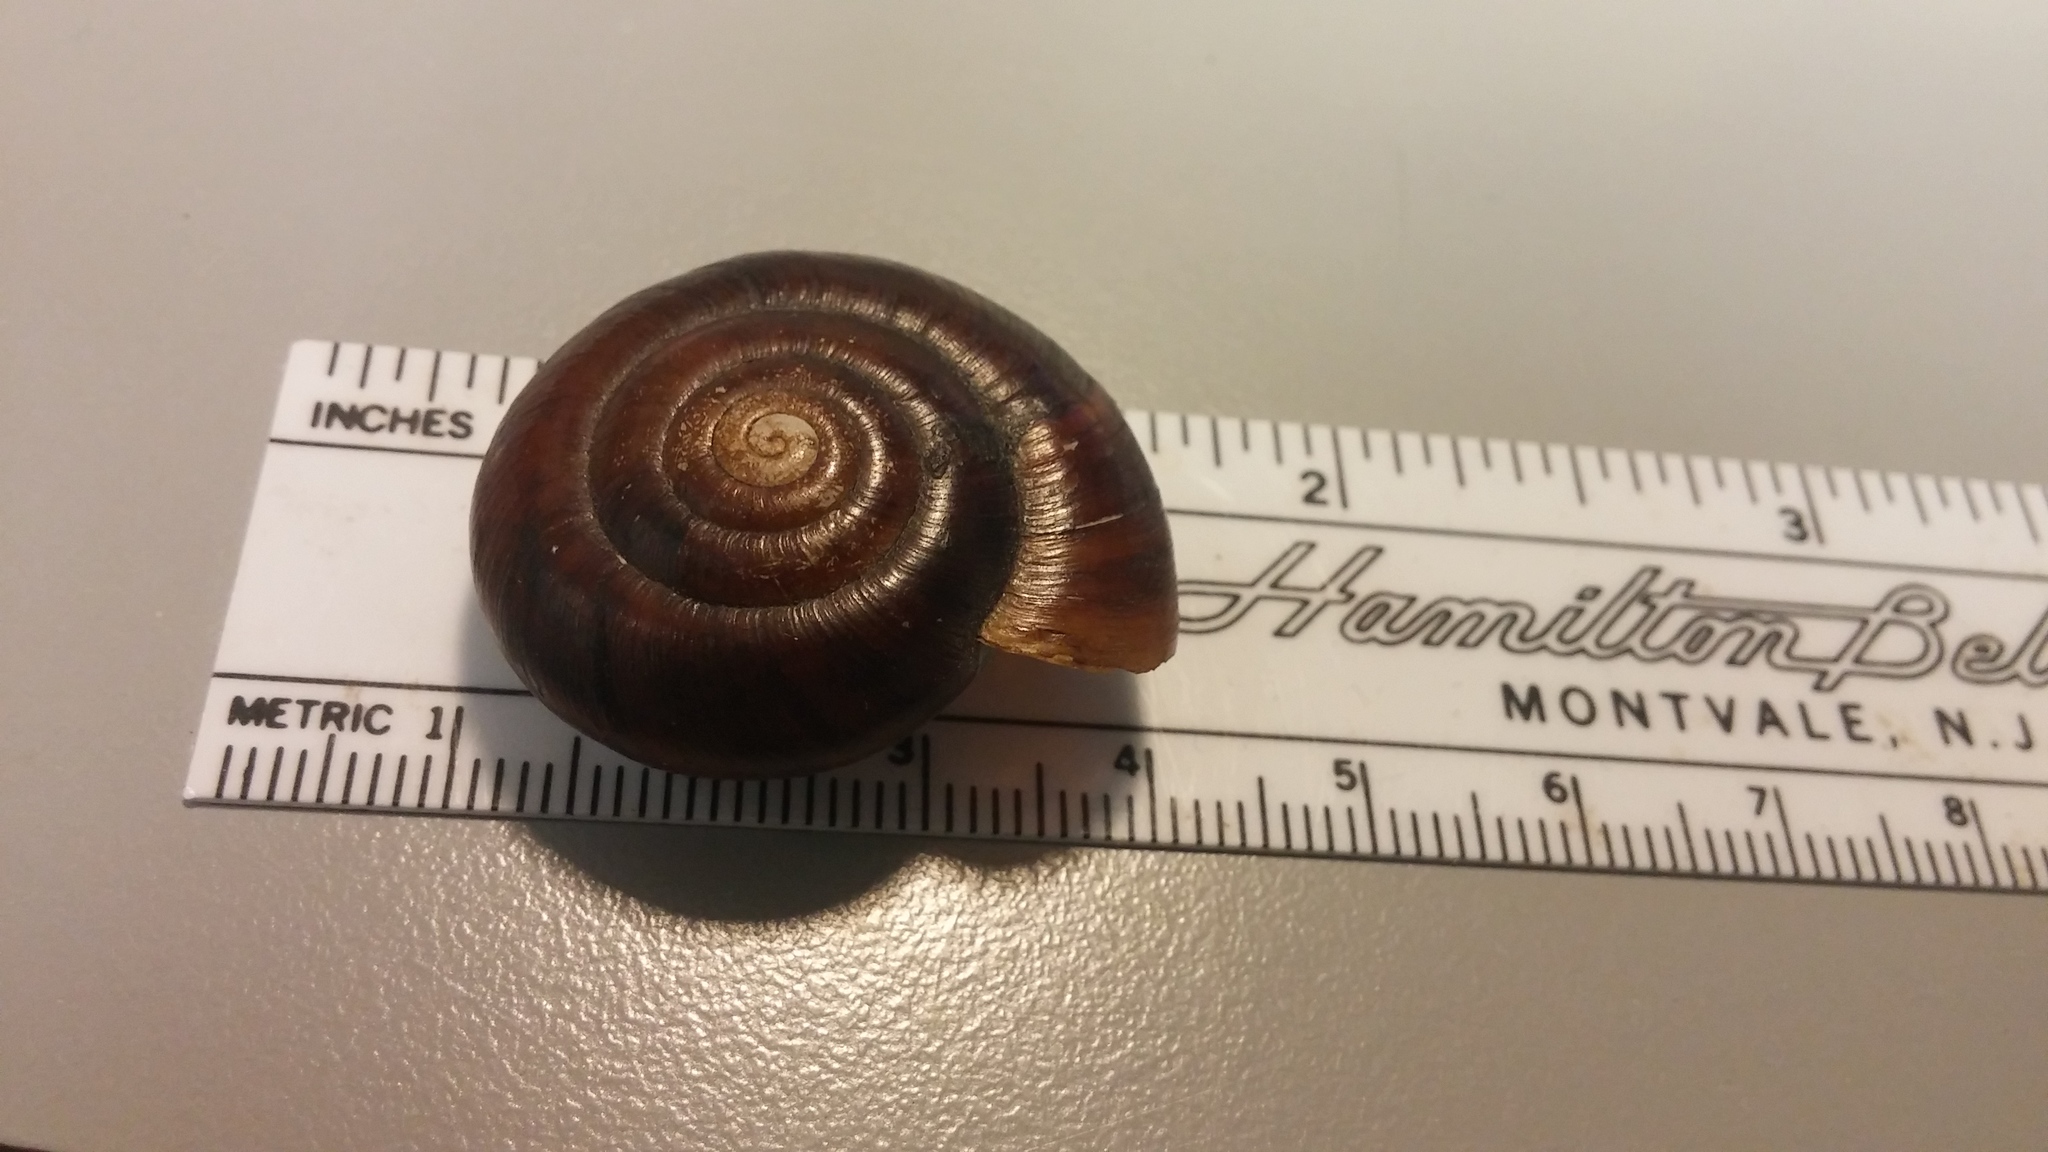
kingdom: Animalia
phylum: Mollusca
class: Gastropoda
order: Stylommatophora
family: Megomphicidae
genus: Glyptostoma
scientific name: Glyptostoma newberryanum
